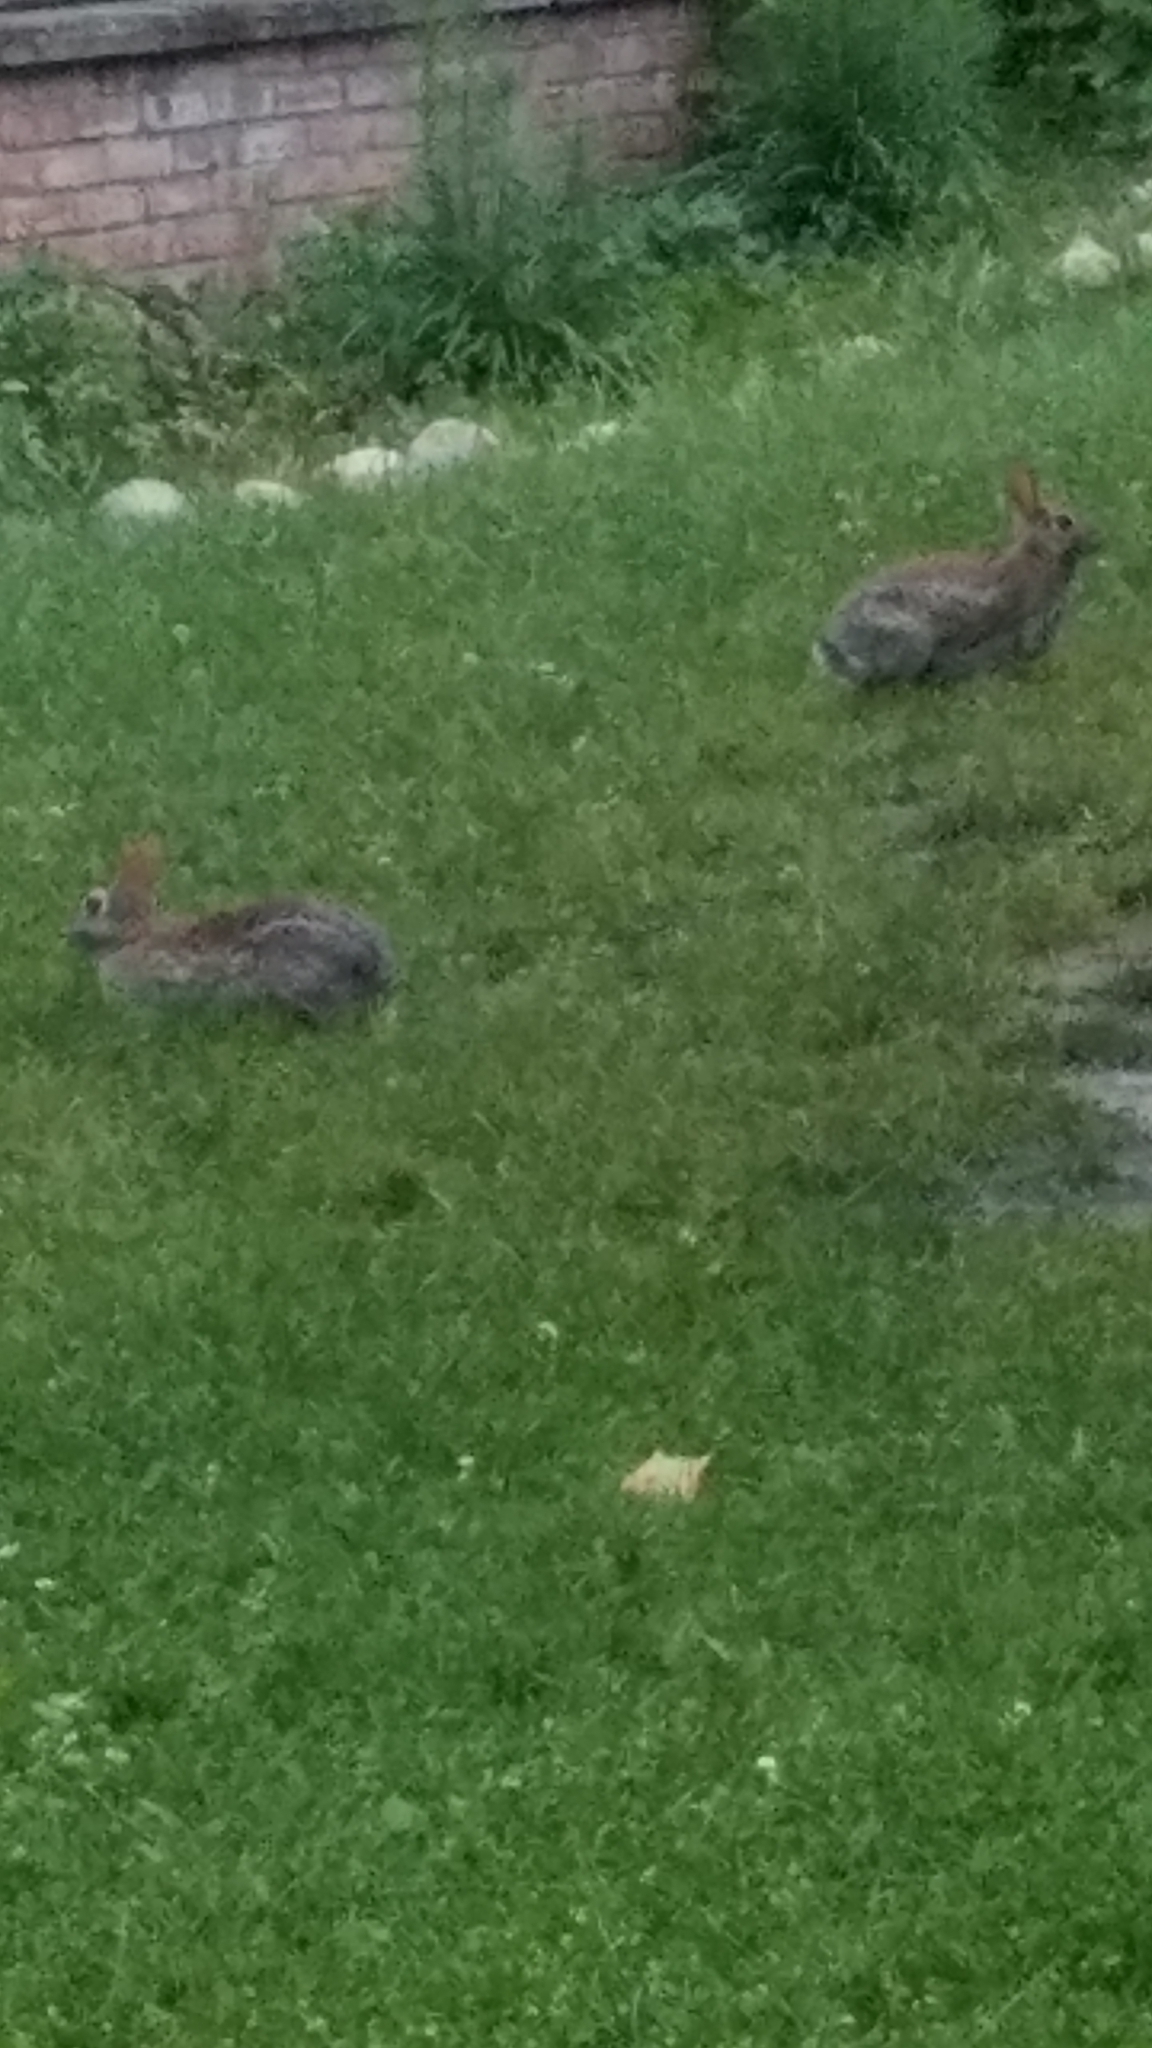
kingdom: Animalia
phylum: Chordata
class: Mammalia
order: Lagomorpha
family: Leporidae
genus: Sylvilagus
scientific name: Sylvilagus floridanus
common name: Eastern cottontail
